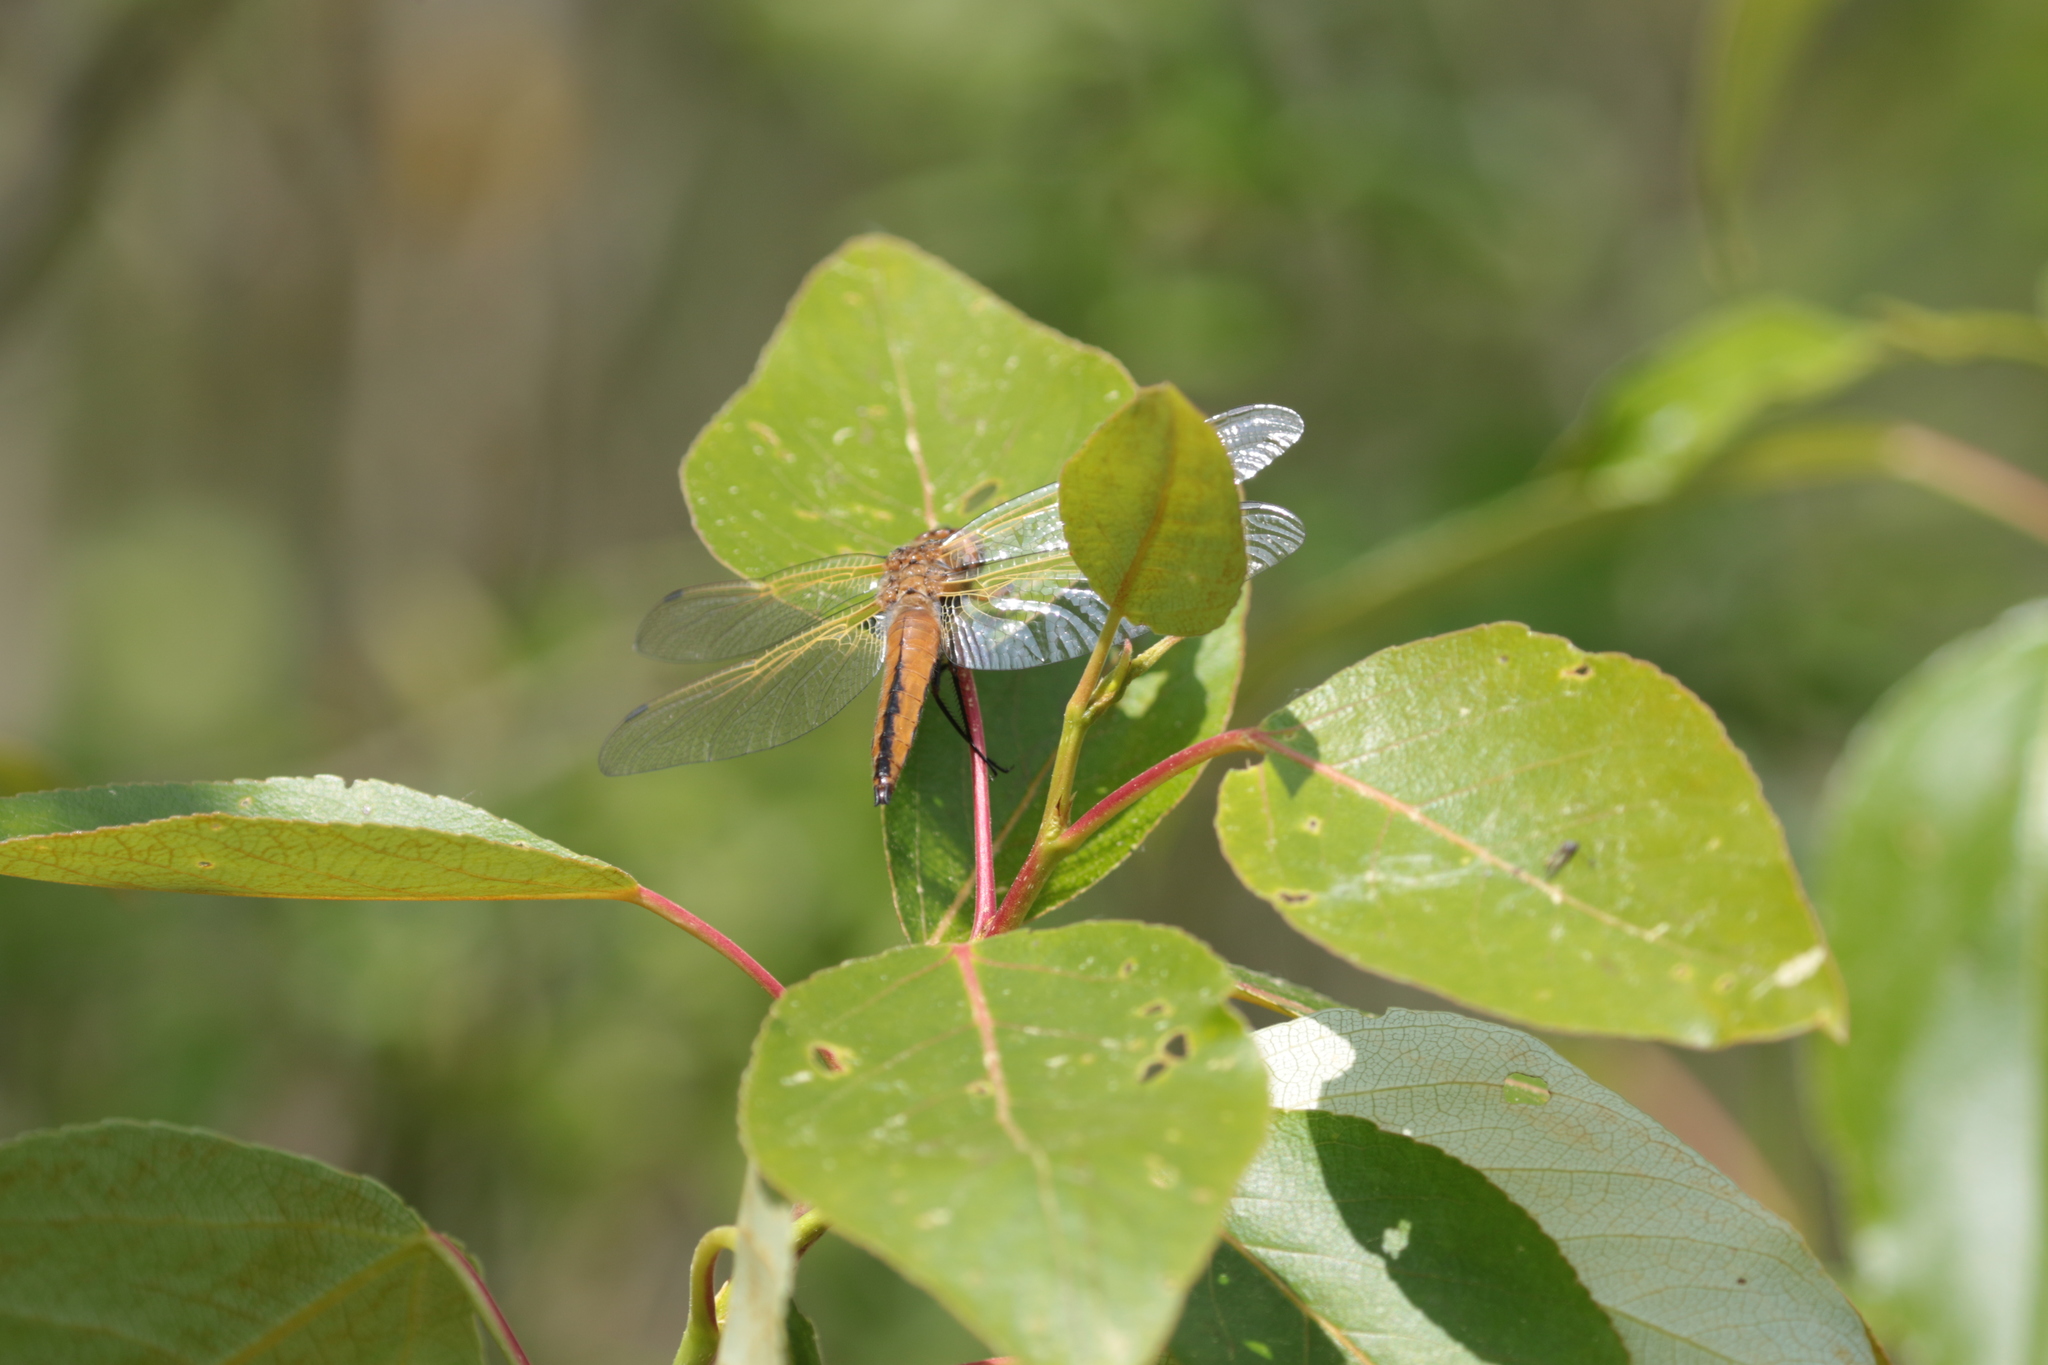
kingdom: Animalia
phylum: Arthropoda
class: Insecta
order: Odonata
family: Libellulidae
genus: Libellula
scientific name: Libellula fulva
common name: Blue chaser
